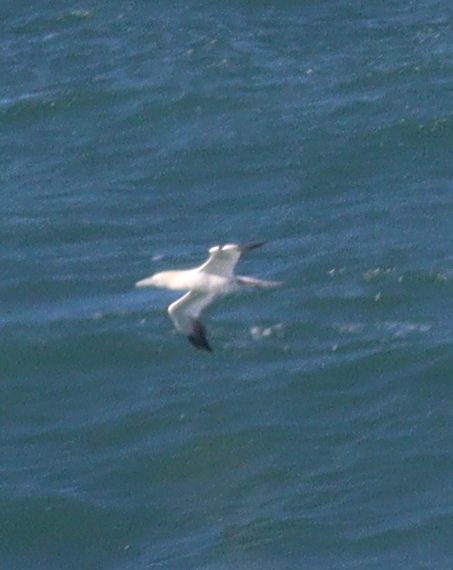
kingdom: Animalia
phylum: Chordata
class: Aves
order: Suliformes
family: Sulidae
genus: Morus
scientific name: Morus bassanus
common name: Northern gannet
